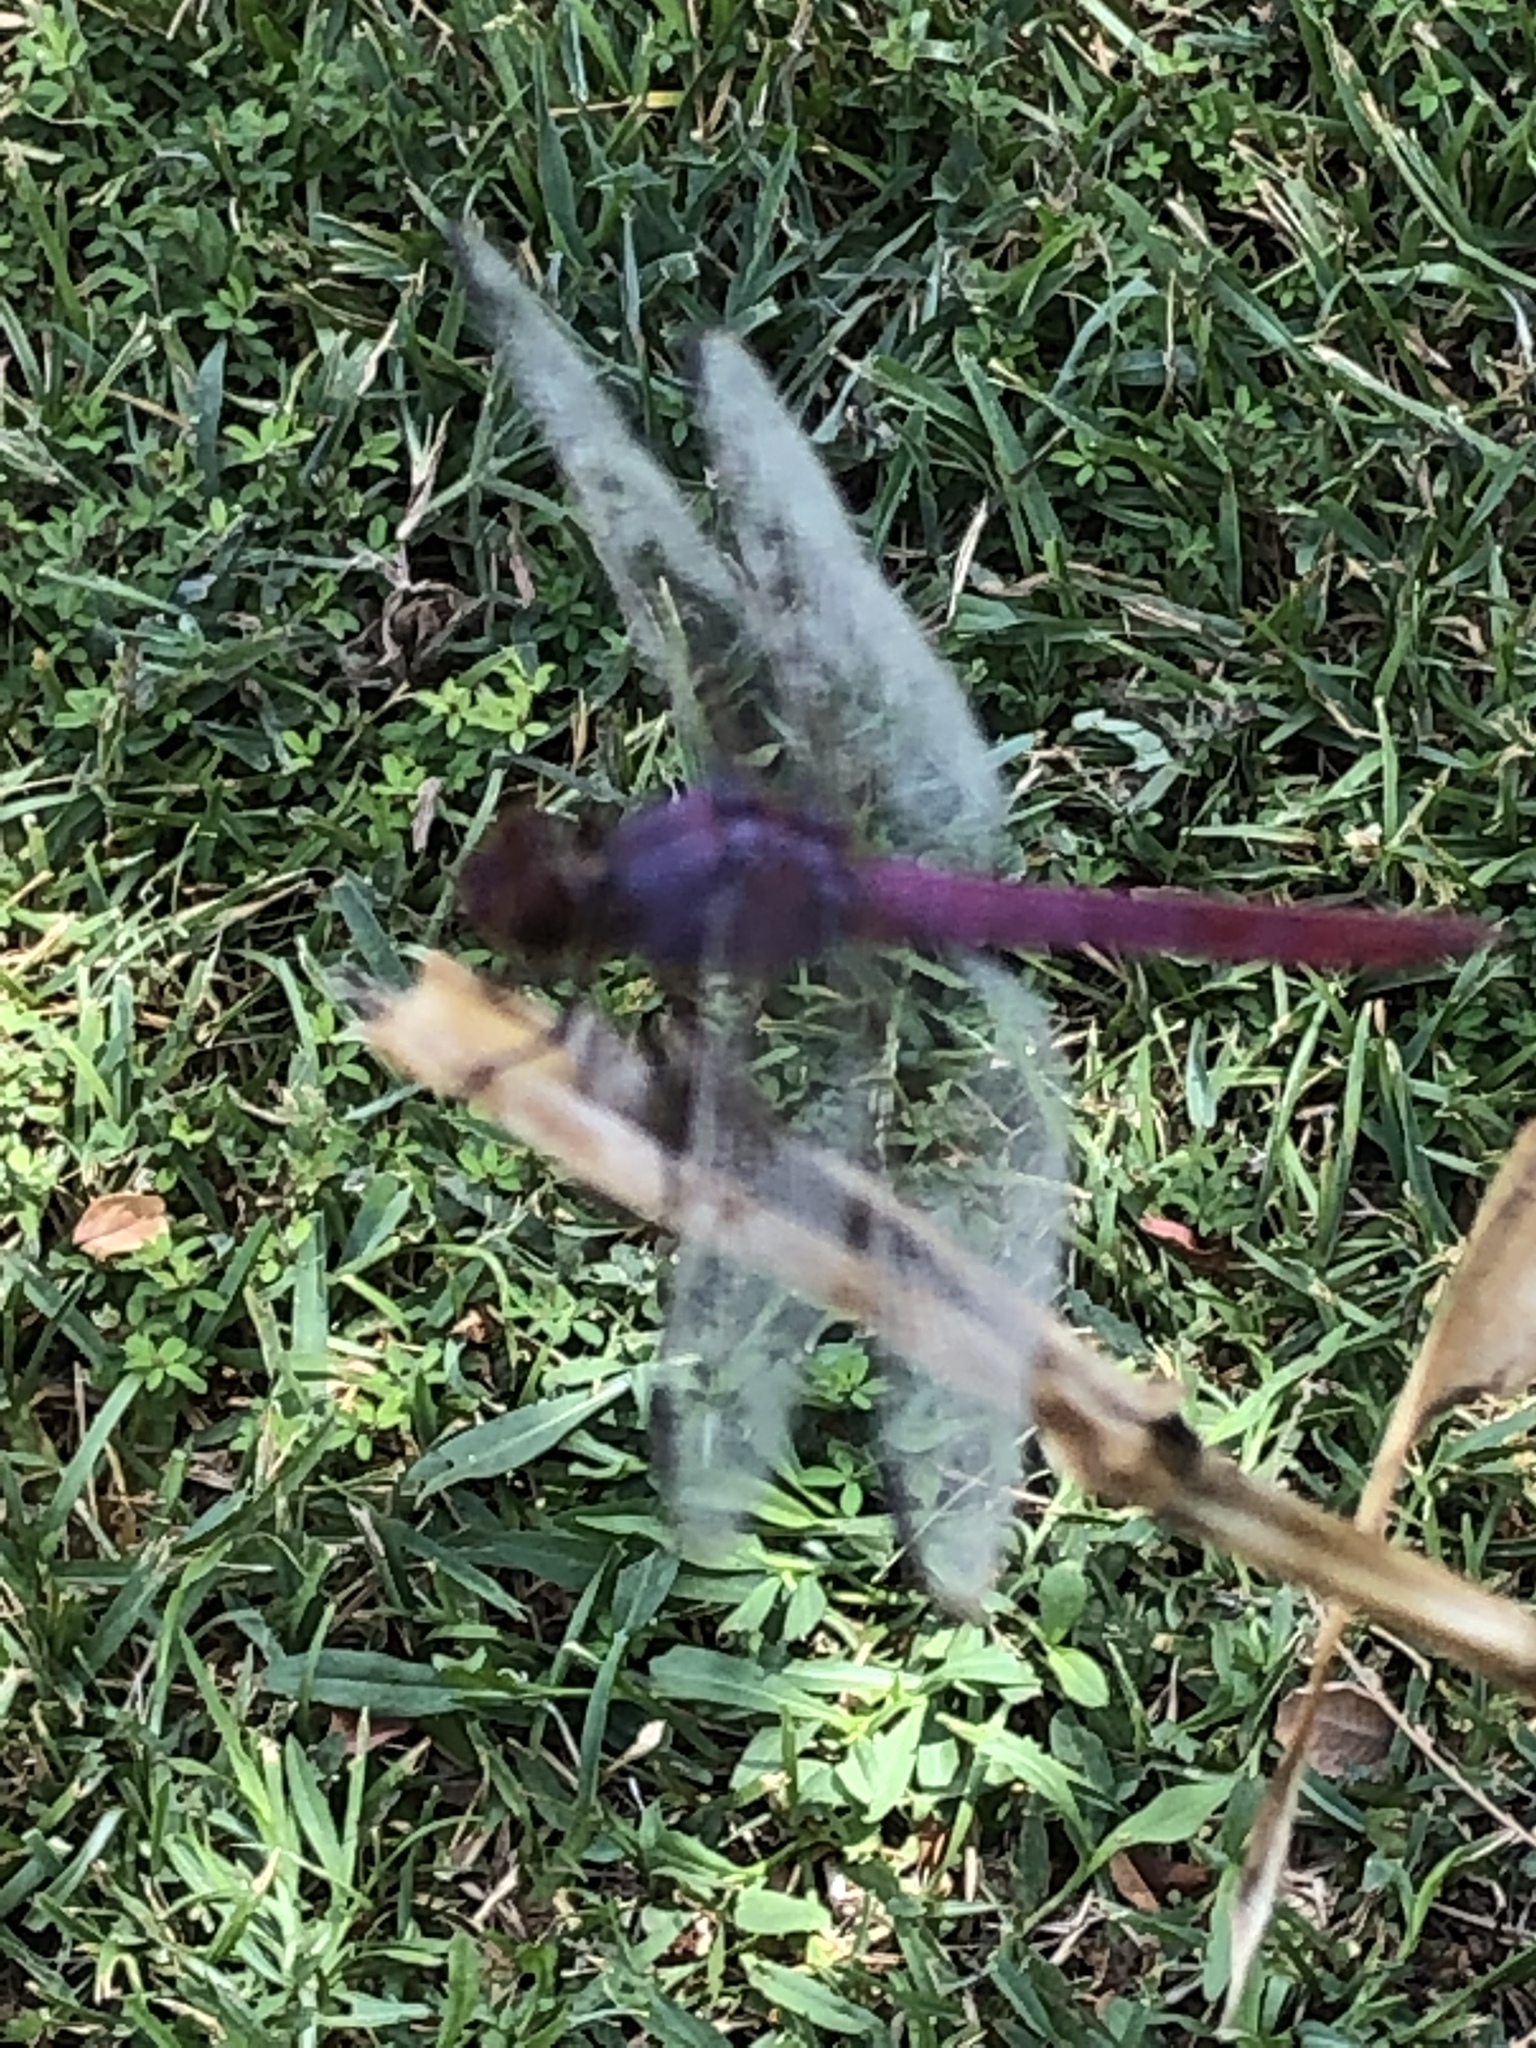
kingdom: Animalia
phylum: Arthropoda
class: Insecta
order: Odonata
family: Libellulidae
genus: Orthemis
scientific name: Orthemis ferruginea
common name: Roseate skimmer
